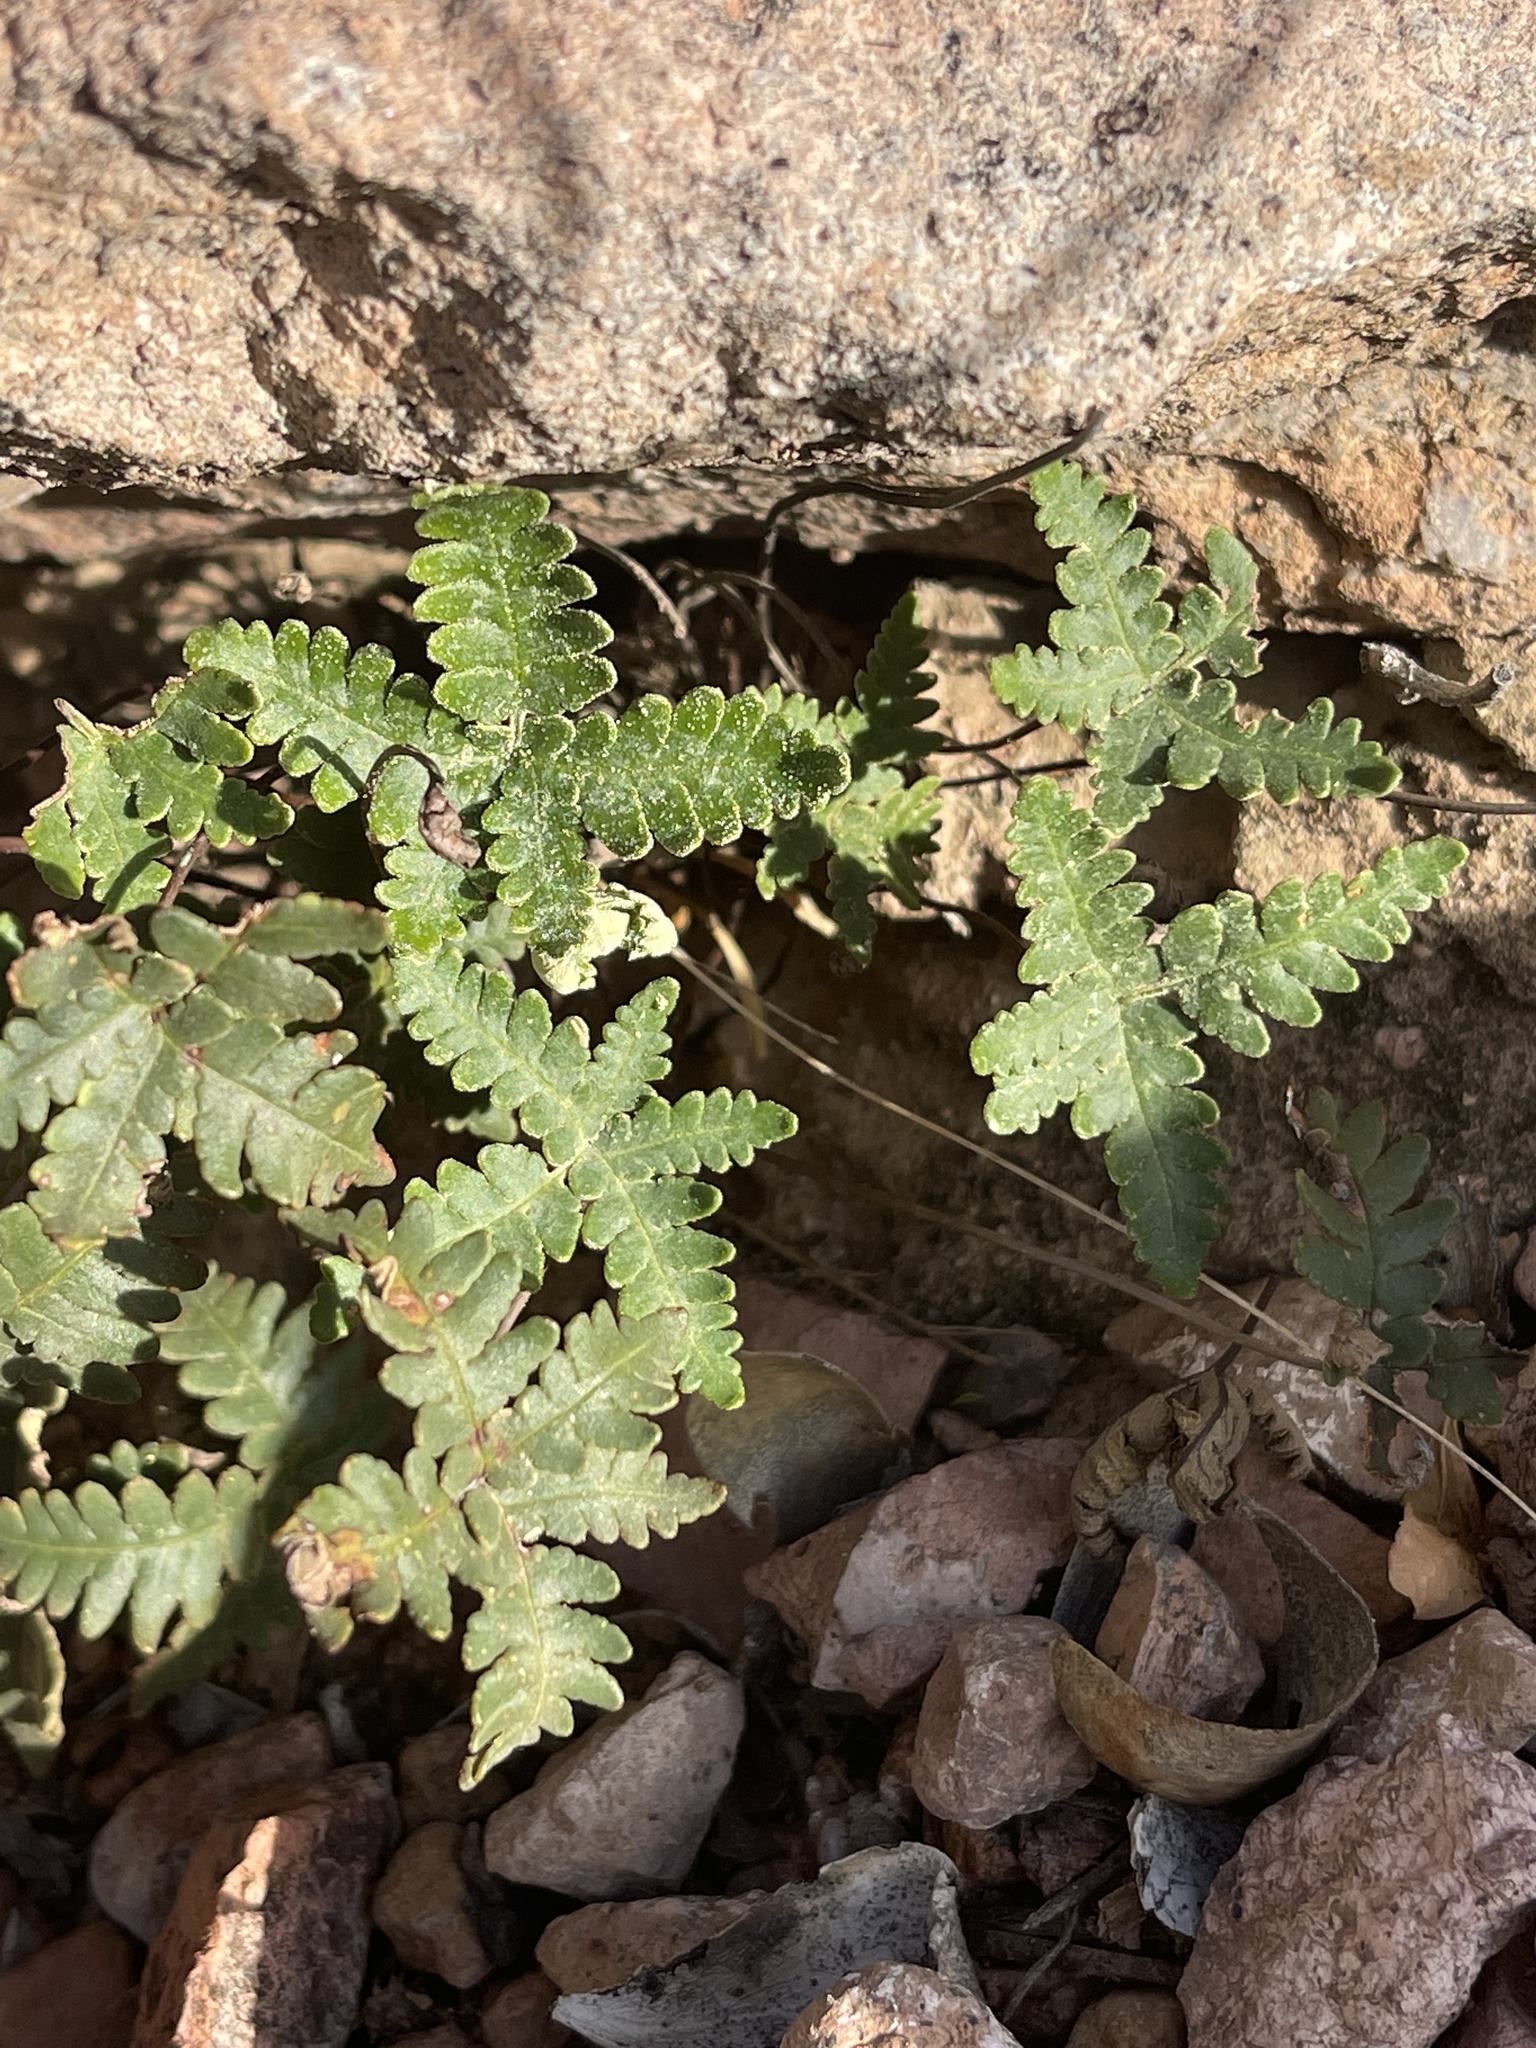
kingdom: Plantae
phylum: Tracheophyta
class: Polypodiopsida
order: Polypodiales
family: Pteridaceae
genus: Notholaena
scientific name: Notholaena standleyi
